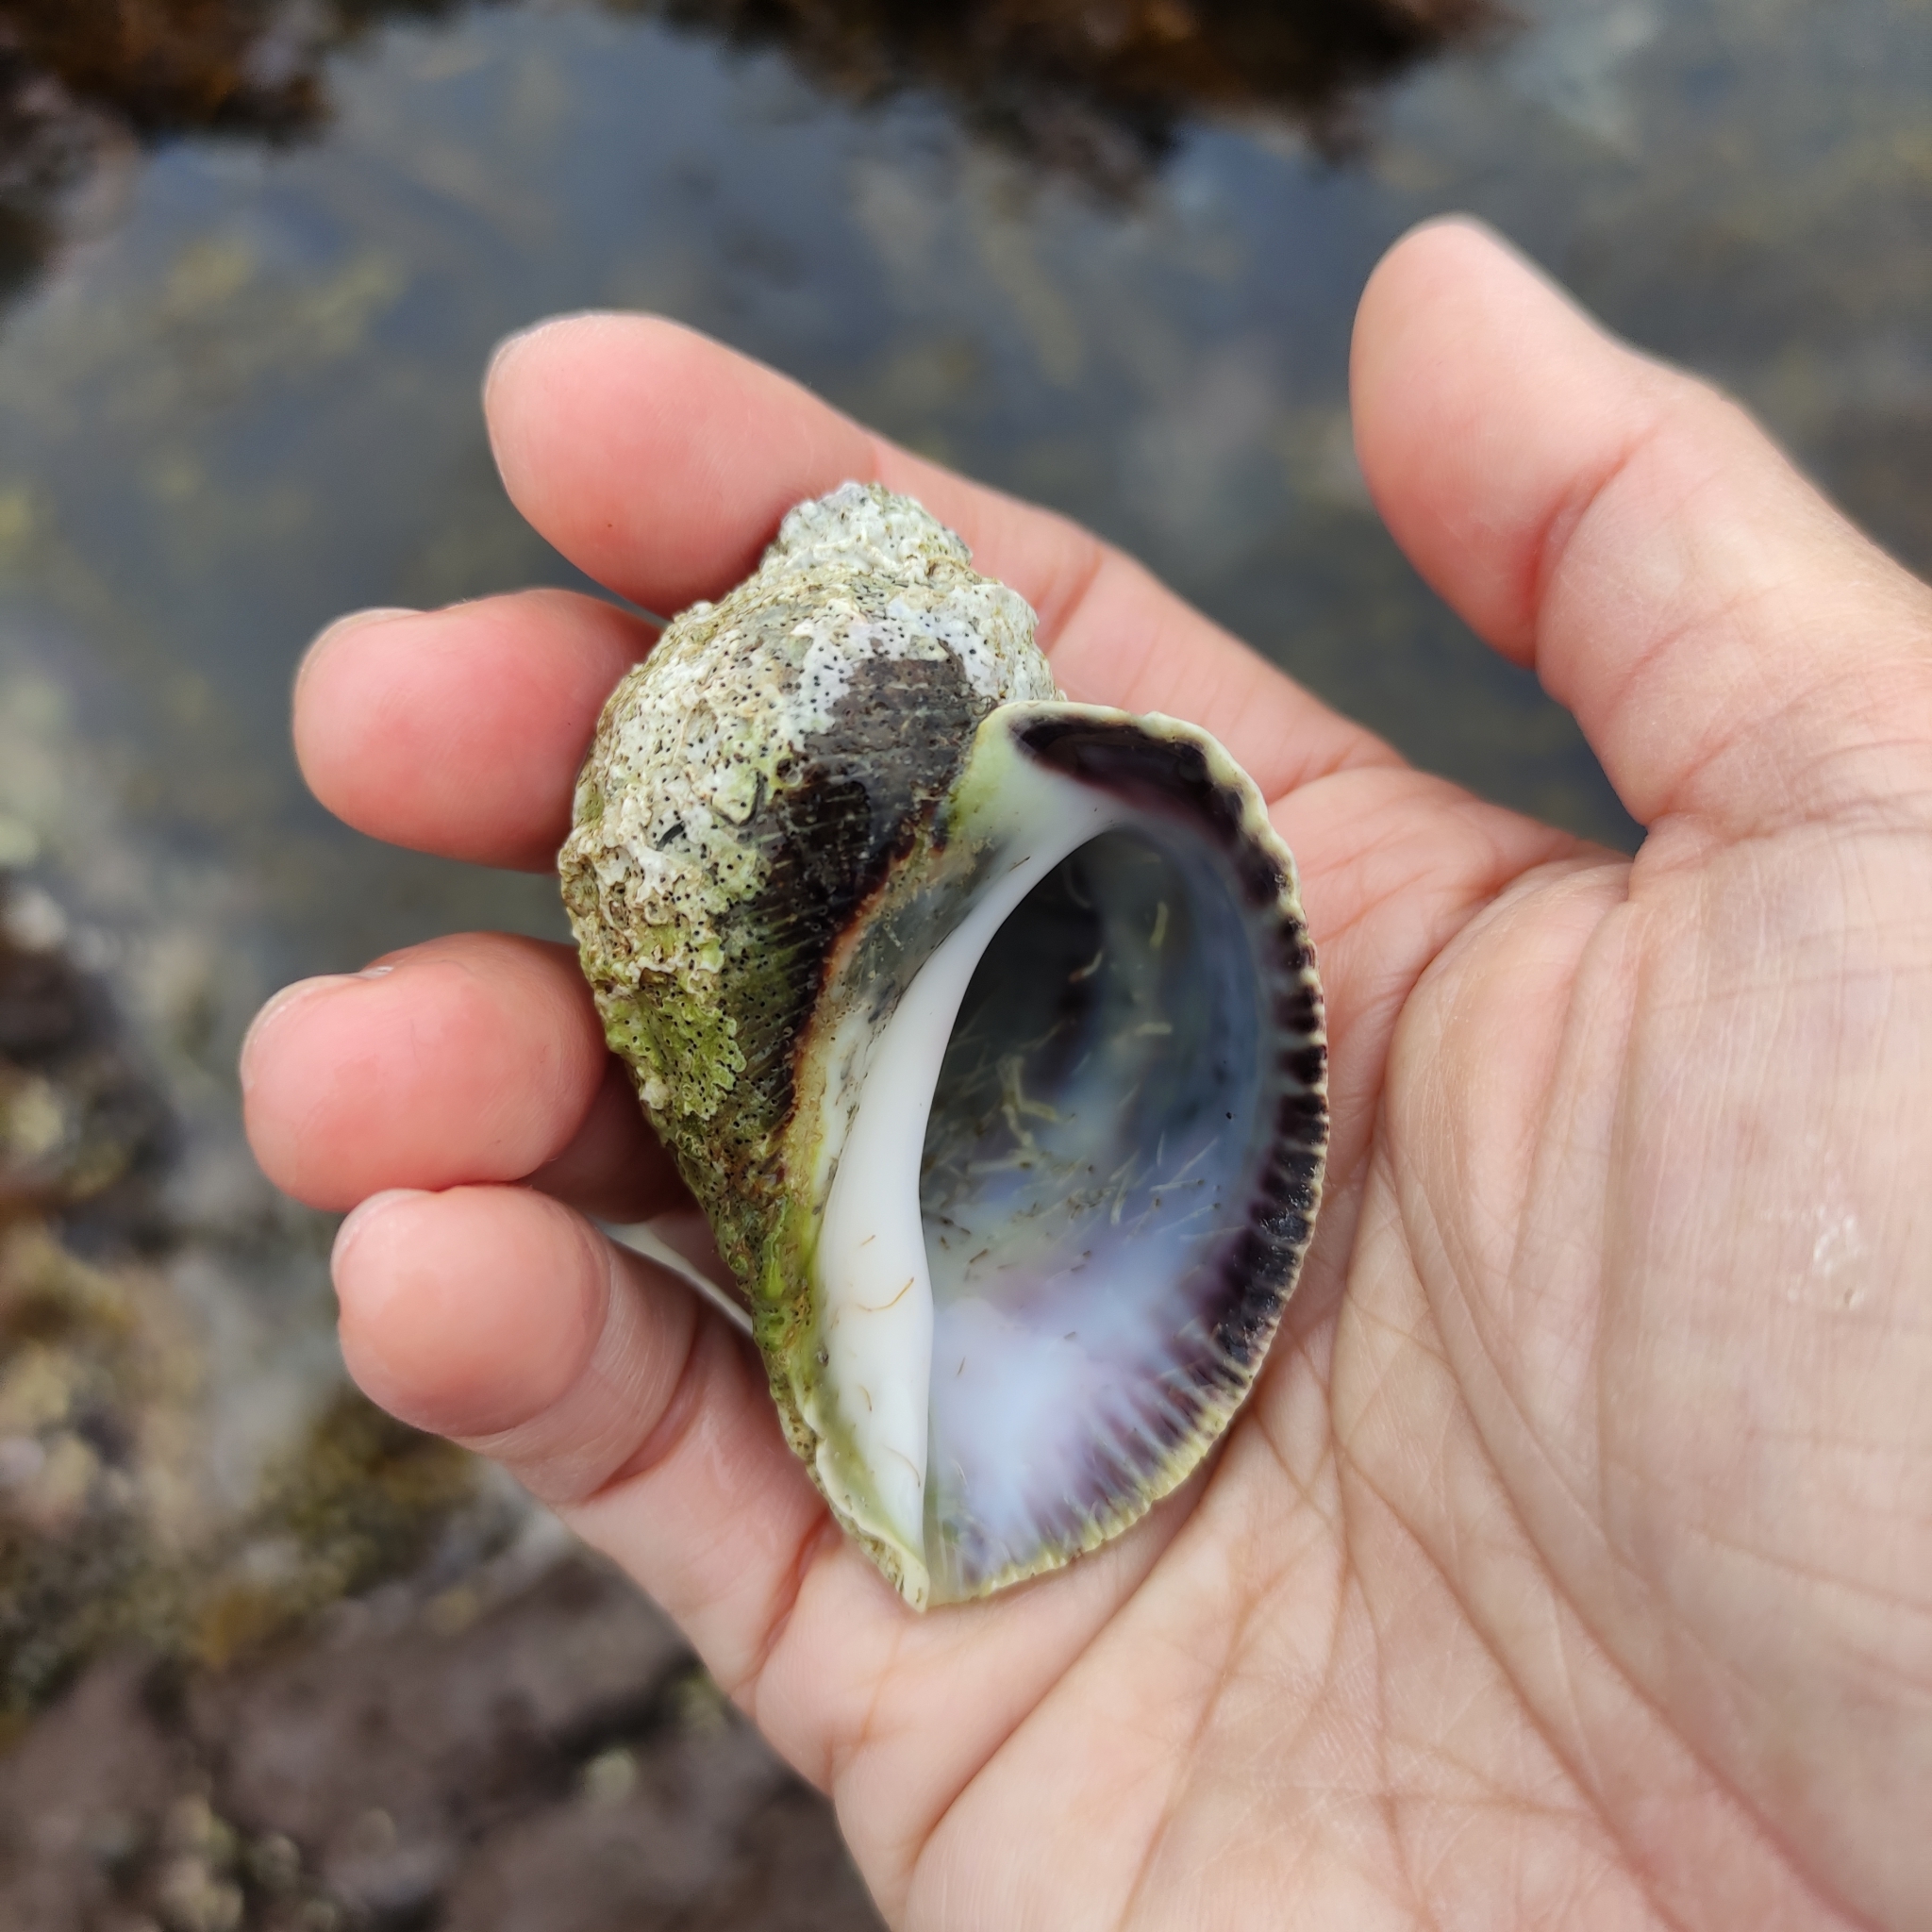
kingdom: Animalia
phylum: Mollusca
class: Gastropoda
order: Neogastropoda
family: Muricidae
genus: Haustrum
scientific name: Haustrum haustorium
